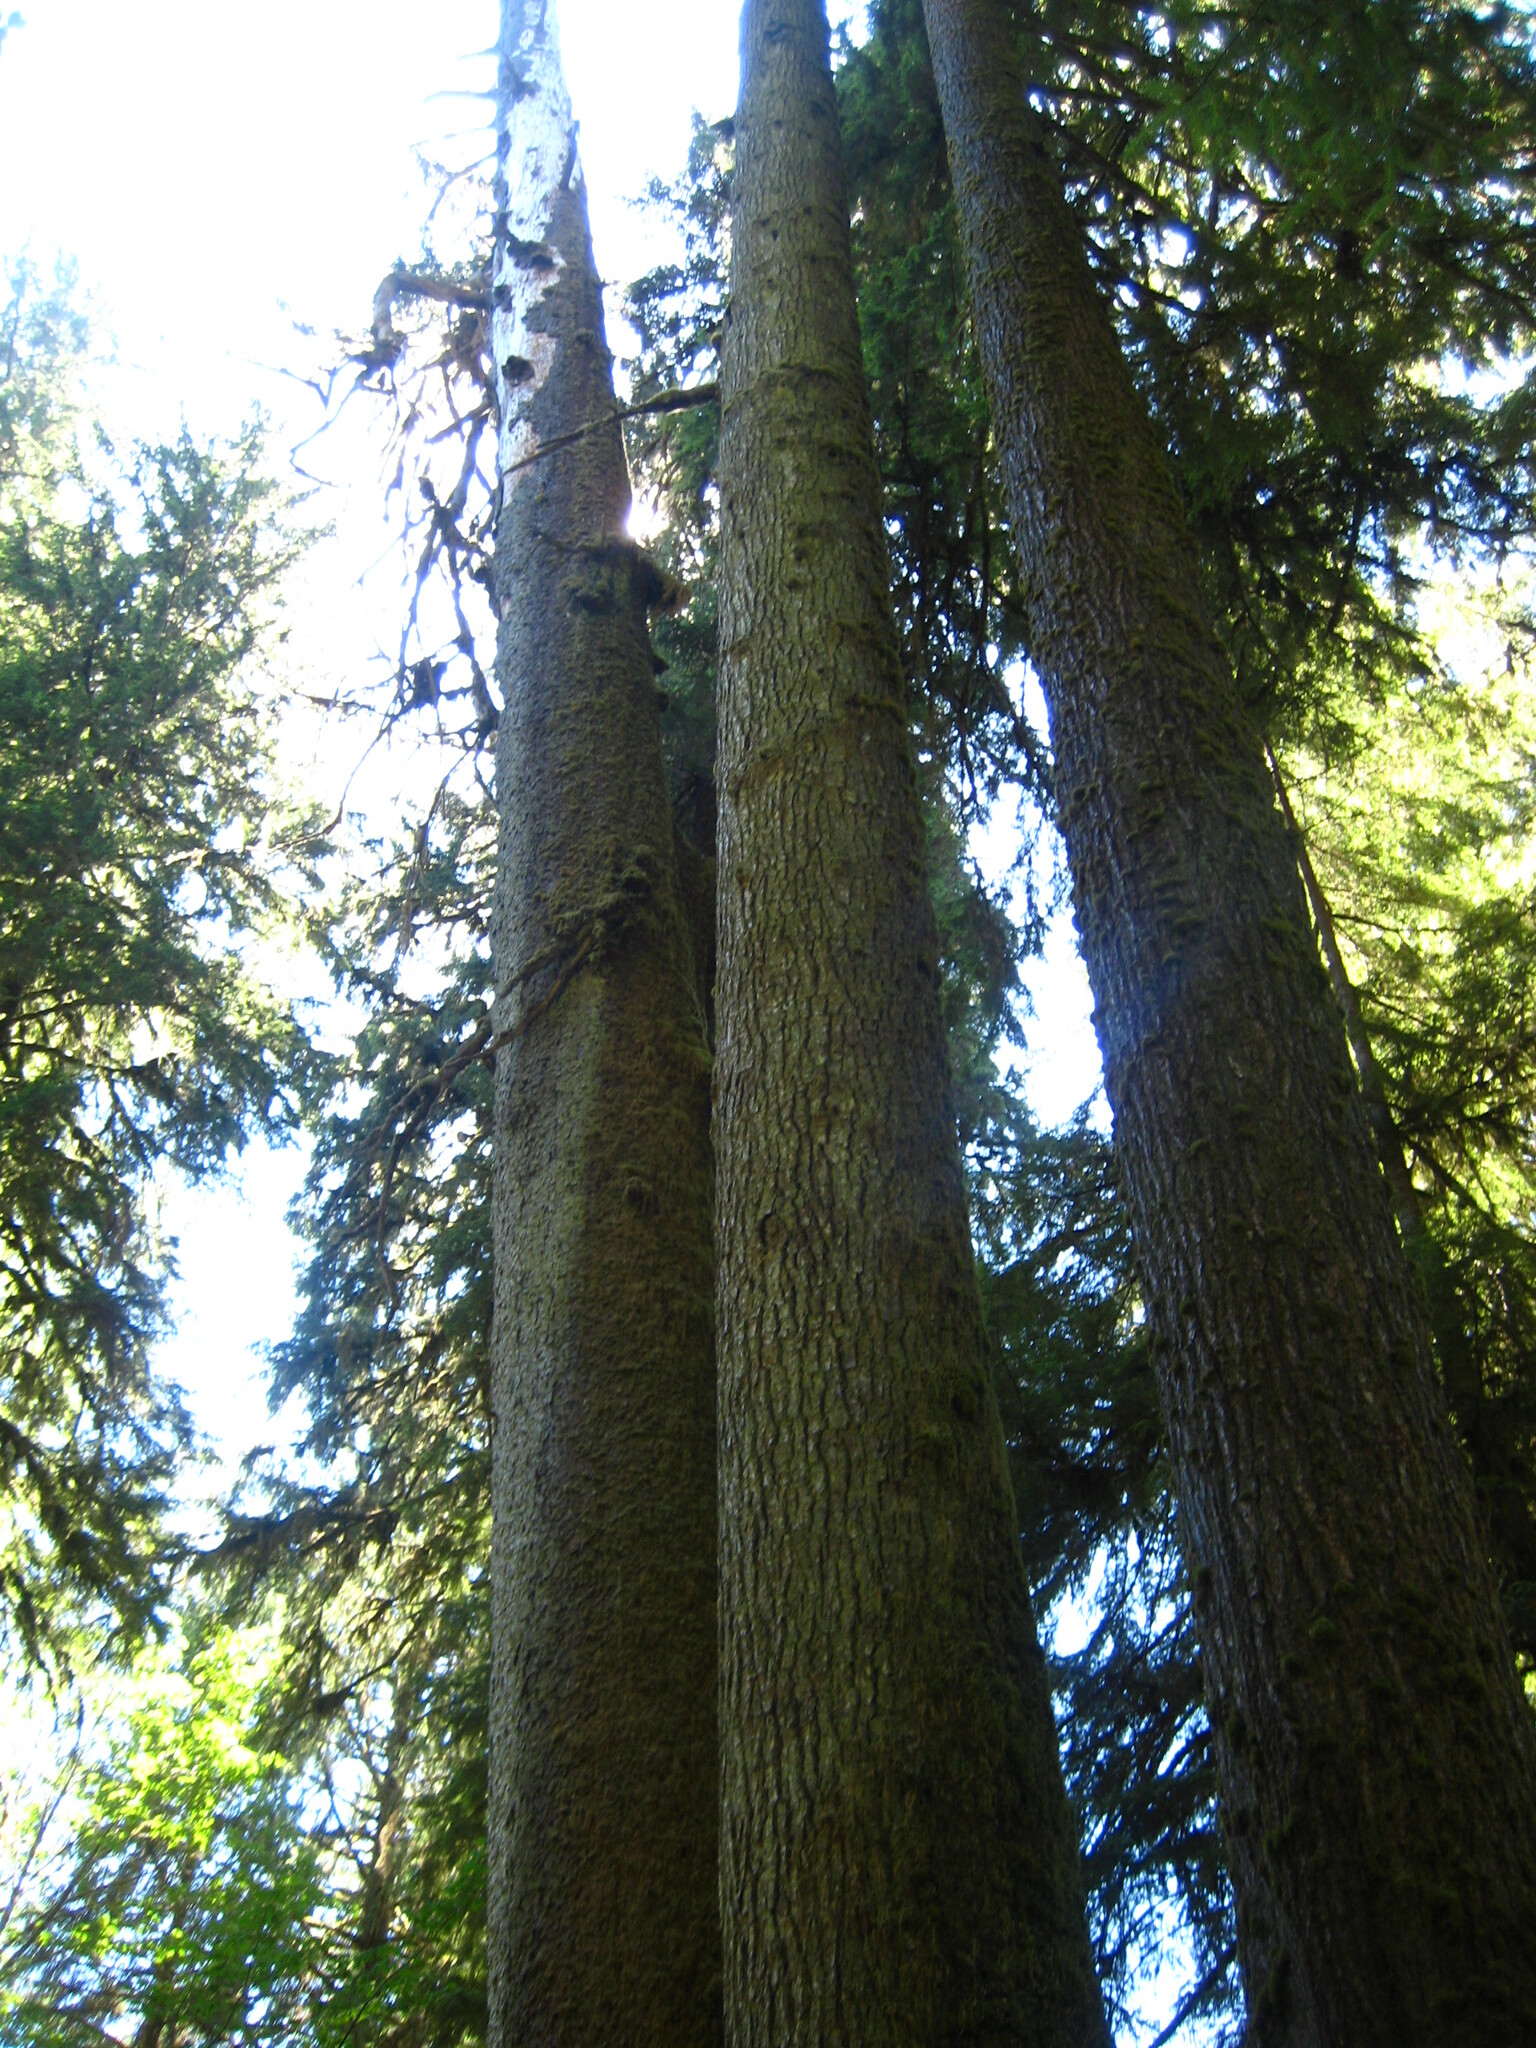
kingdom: Plantae
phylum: Tracheophyta
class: Pinopsida
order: Pinales
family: Pinaceae
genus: Picea
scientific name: Picea sitchensis
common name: Sitka spruce
